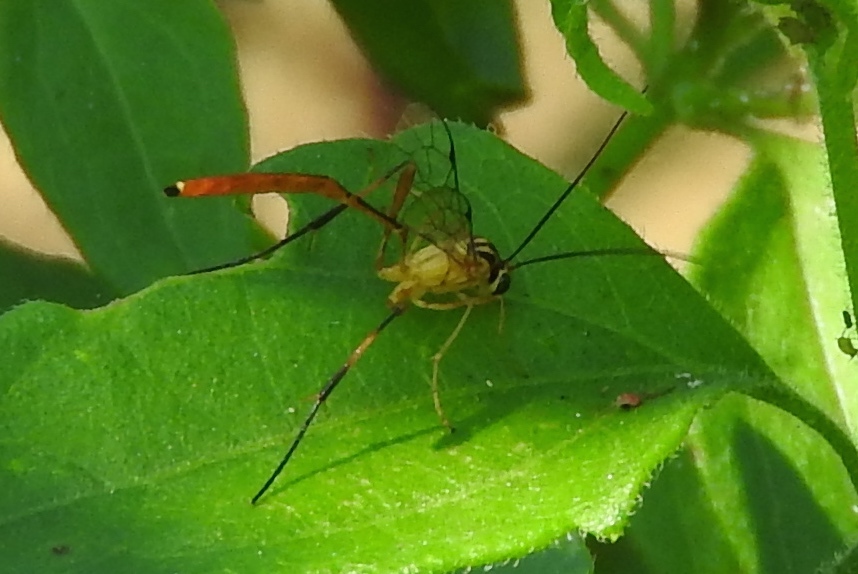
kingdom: Animalia
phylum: Arthropoda
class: Insecta
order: Hymenoptera
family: Ichneumonidae
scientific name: Ichneumonidae
